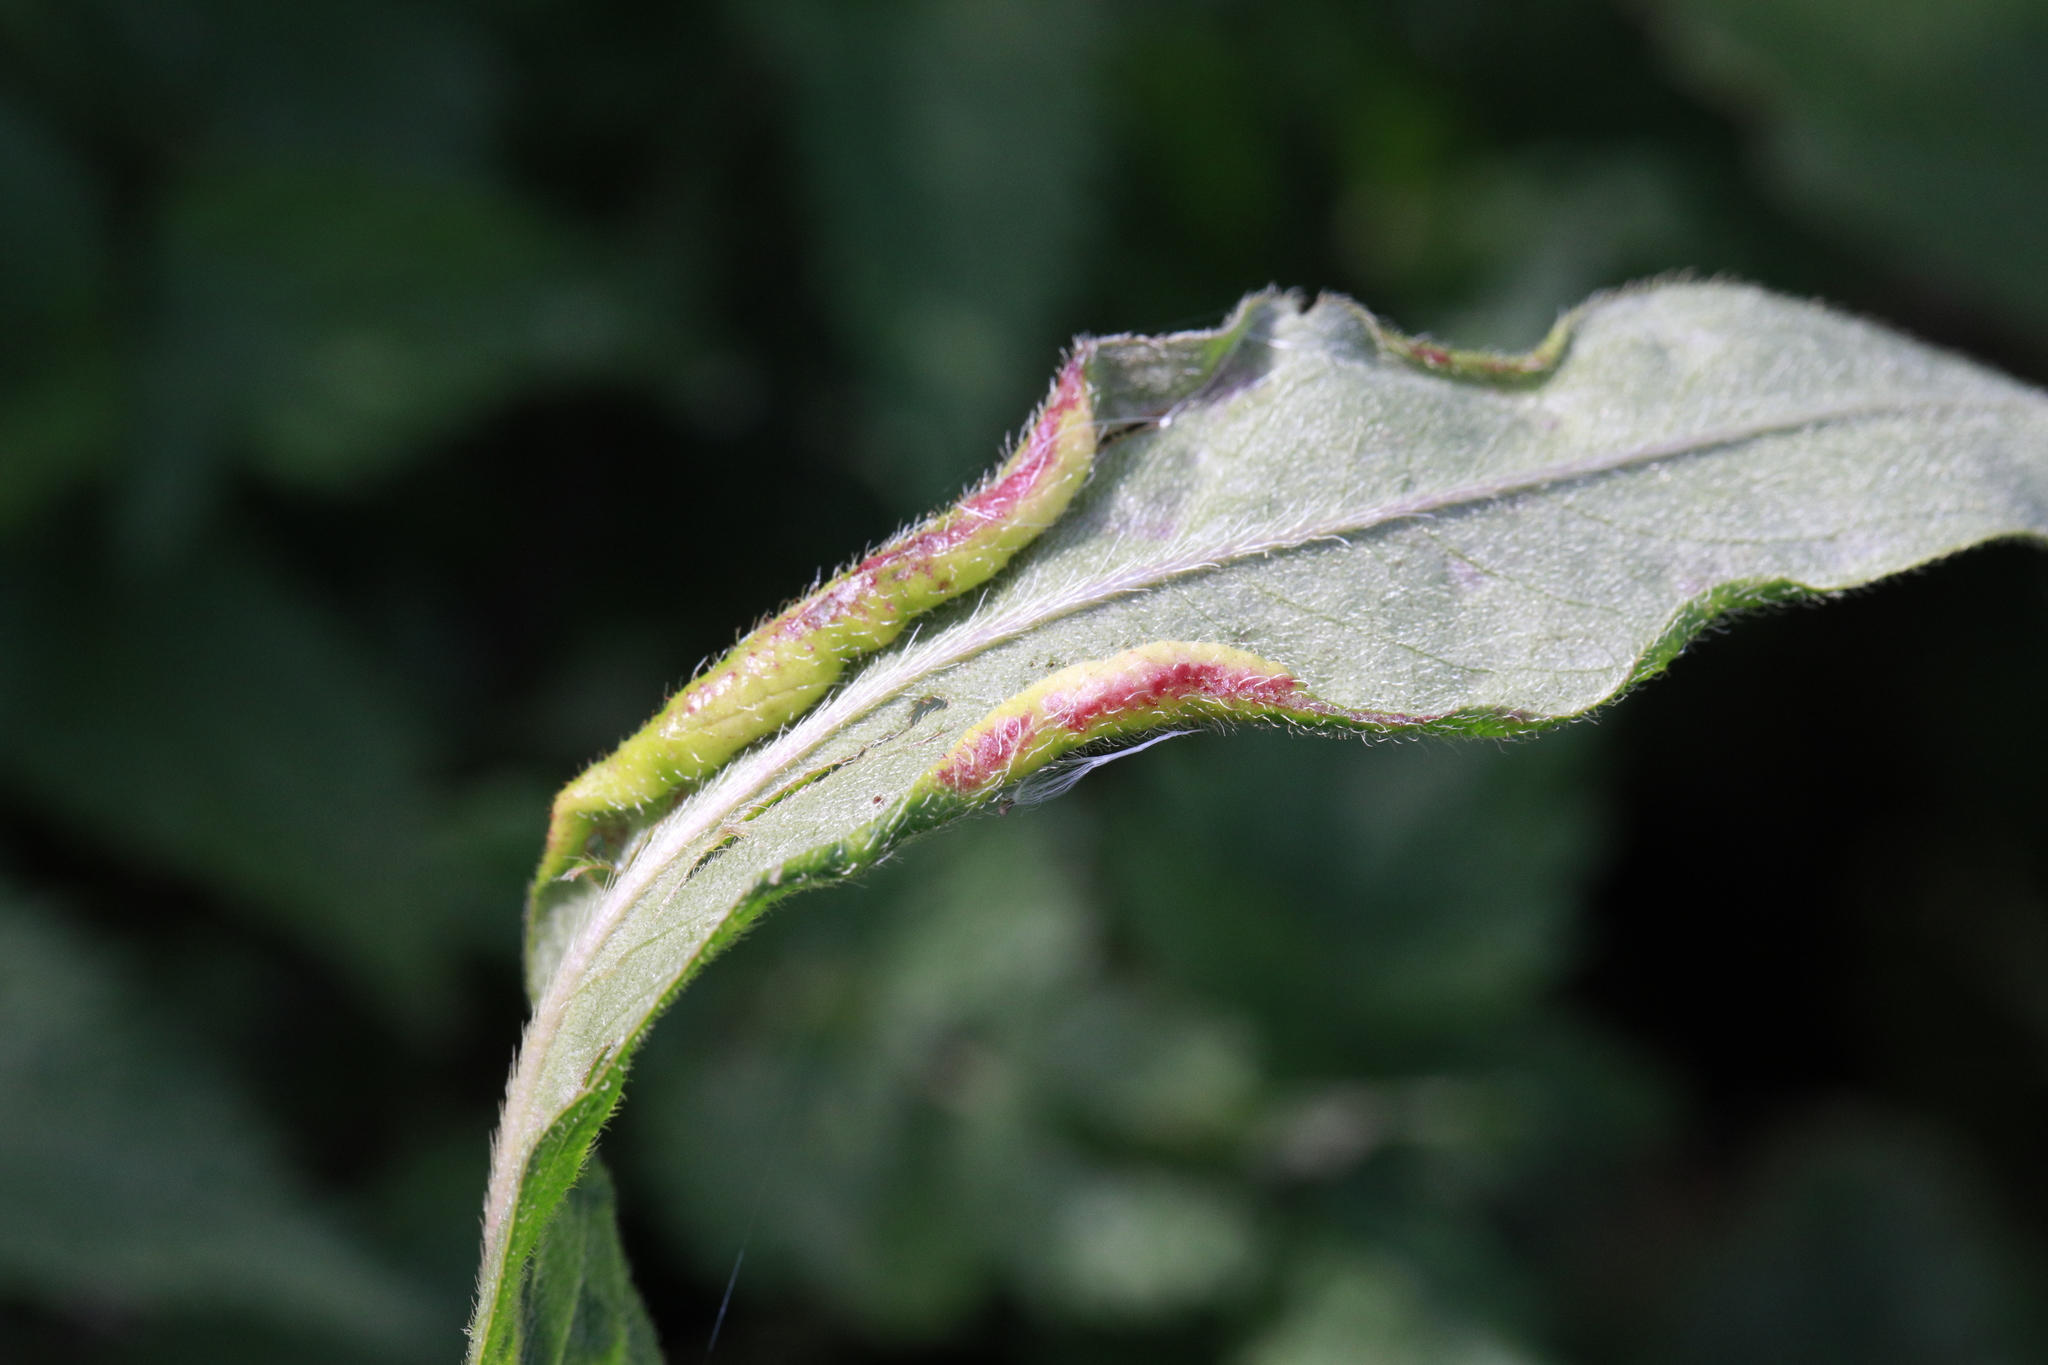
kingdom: Animalia
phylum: Arthropoda
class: Insecta
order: Diptera
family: Cecidomyiidae
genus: Wachtliella
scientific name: Wachtliella persicariae
